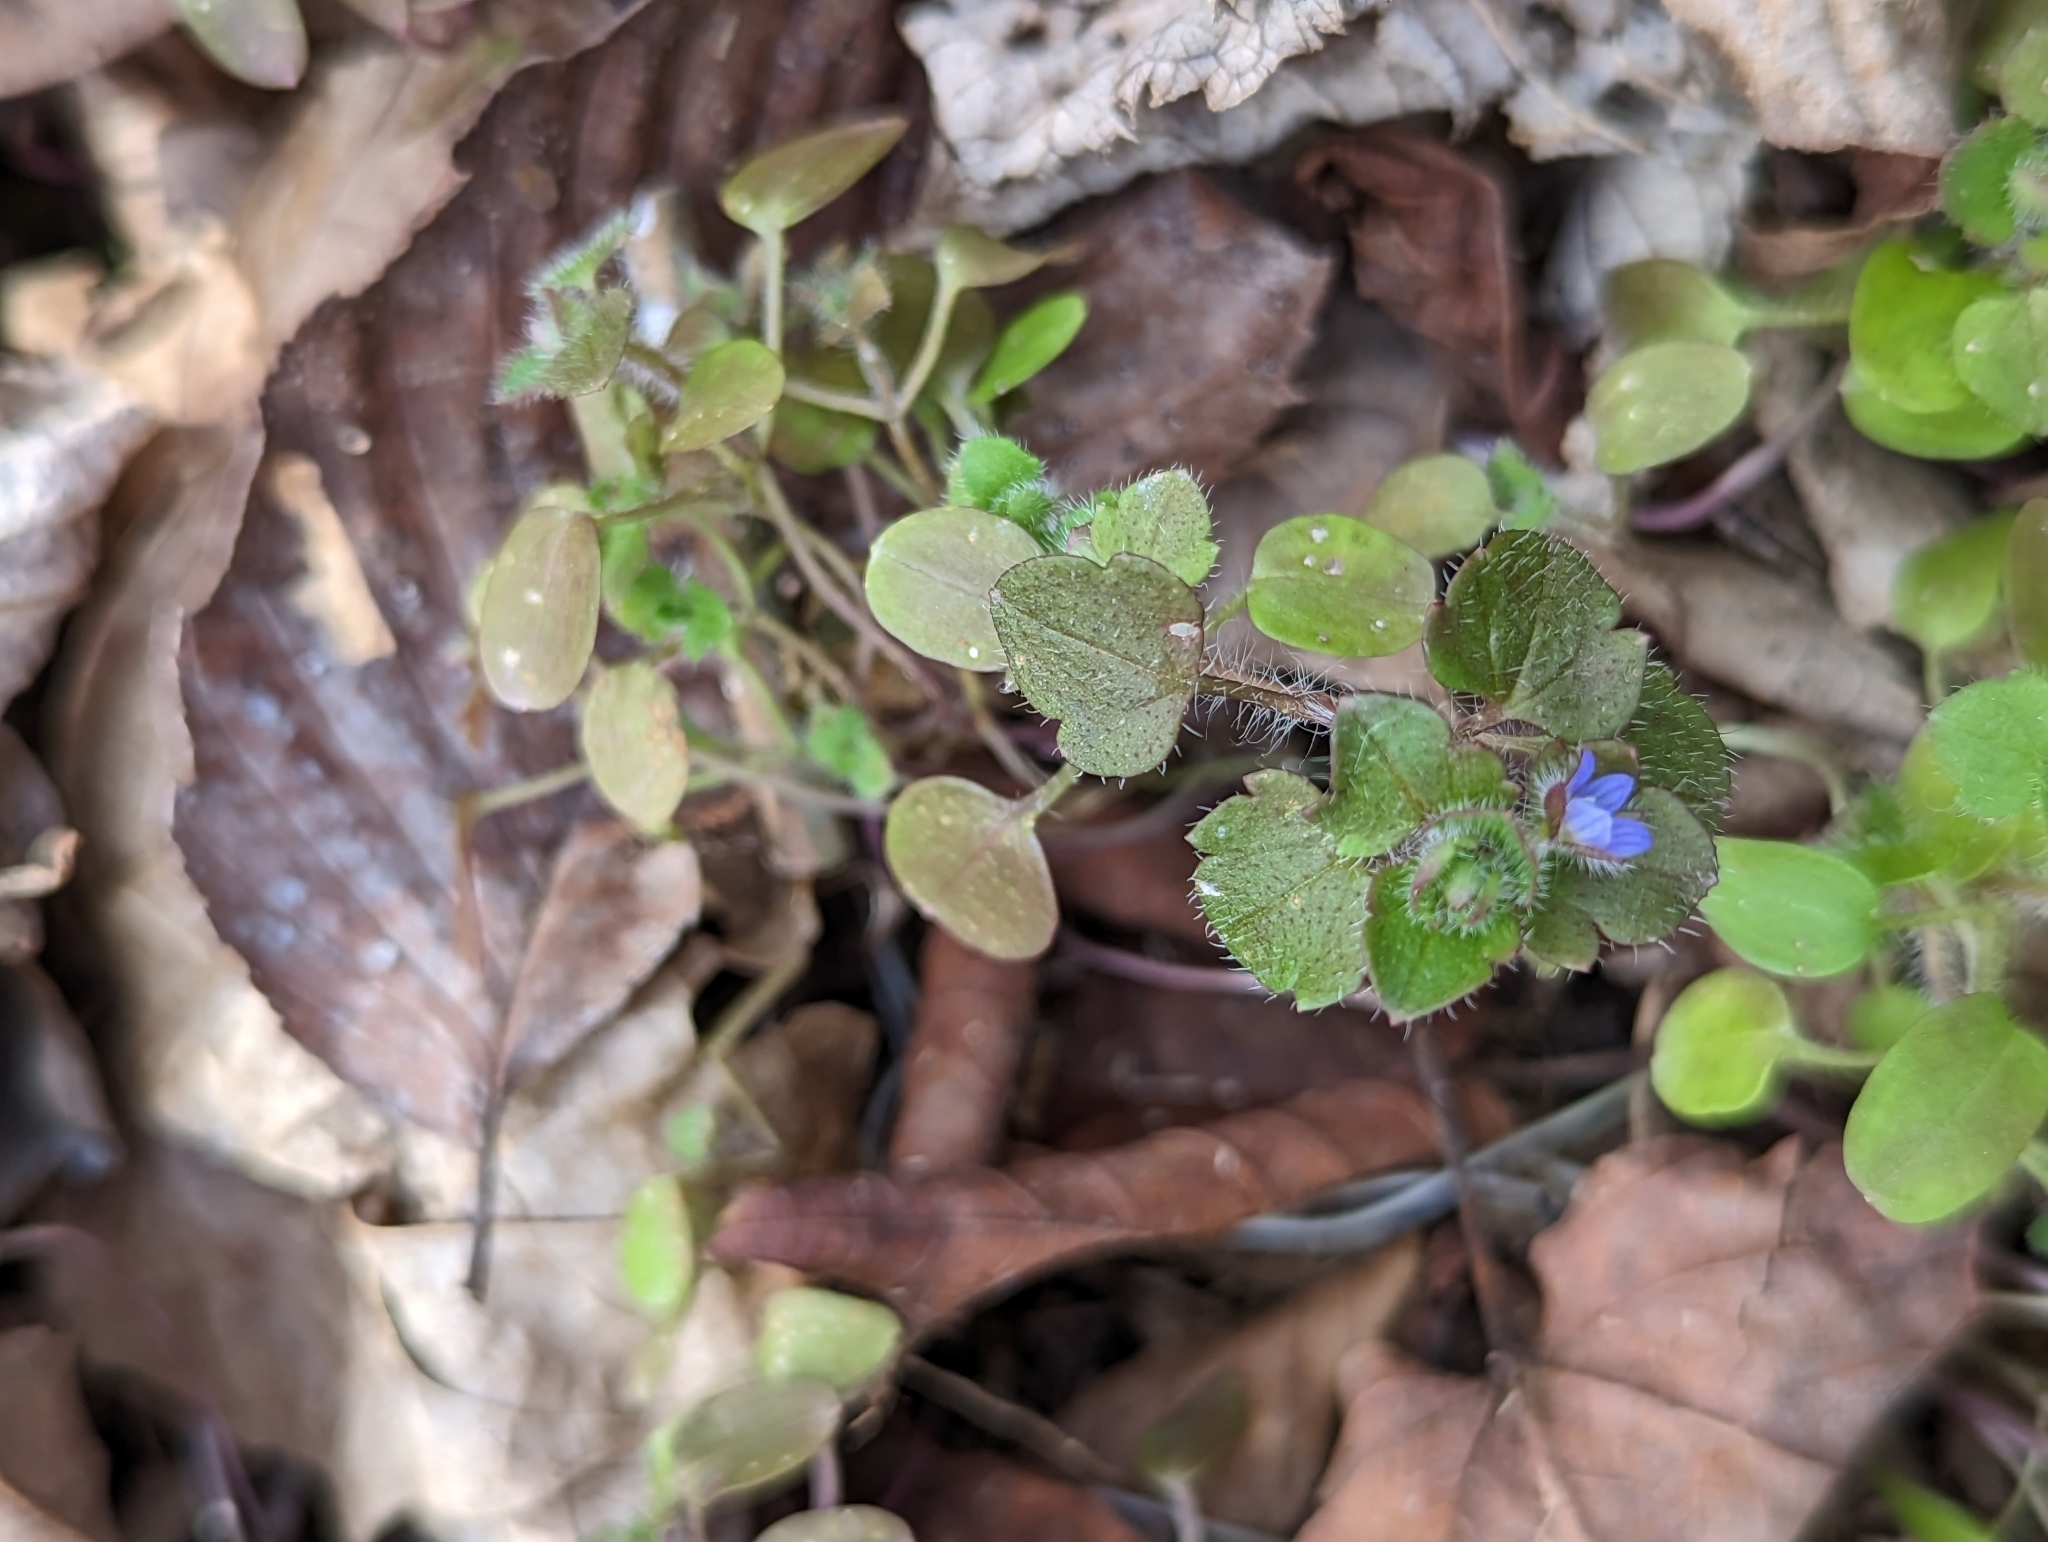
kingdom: Plantae
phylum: Tracheophyta
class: Magnoliopsida
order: Lamiales
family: Plantaginaceae
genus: Veronica
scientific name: Veronica hederifolia
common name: Ivy-leaved speedwell
